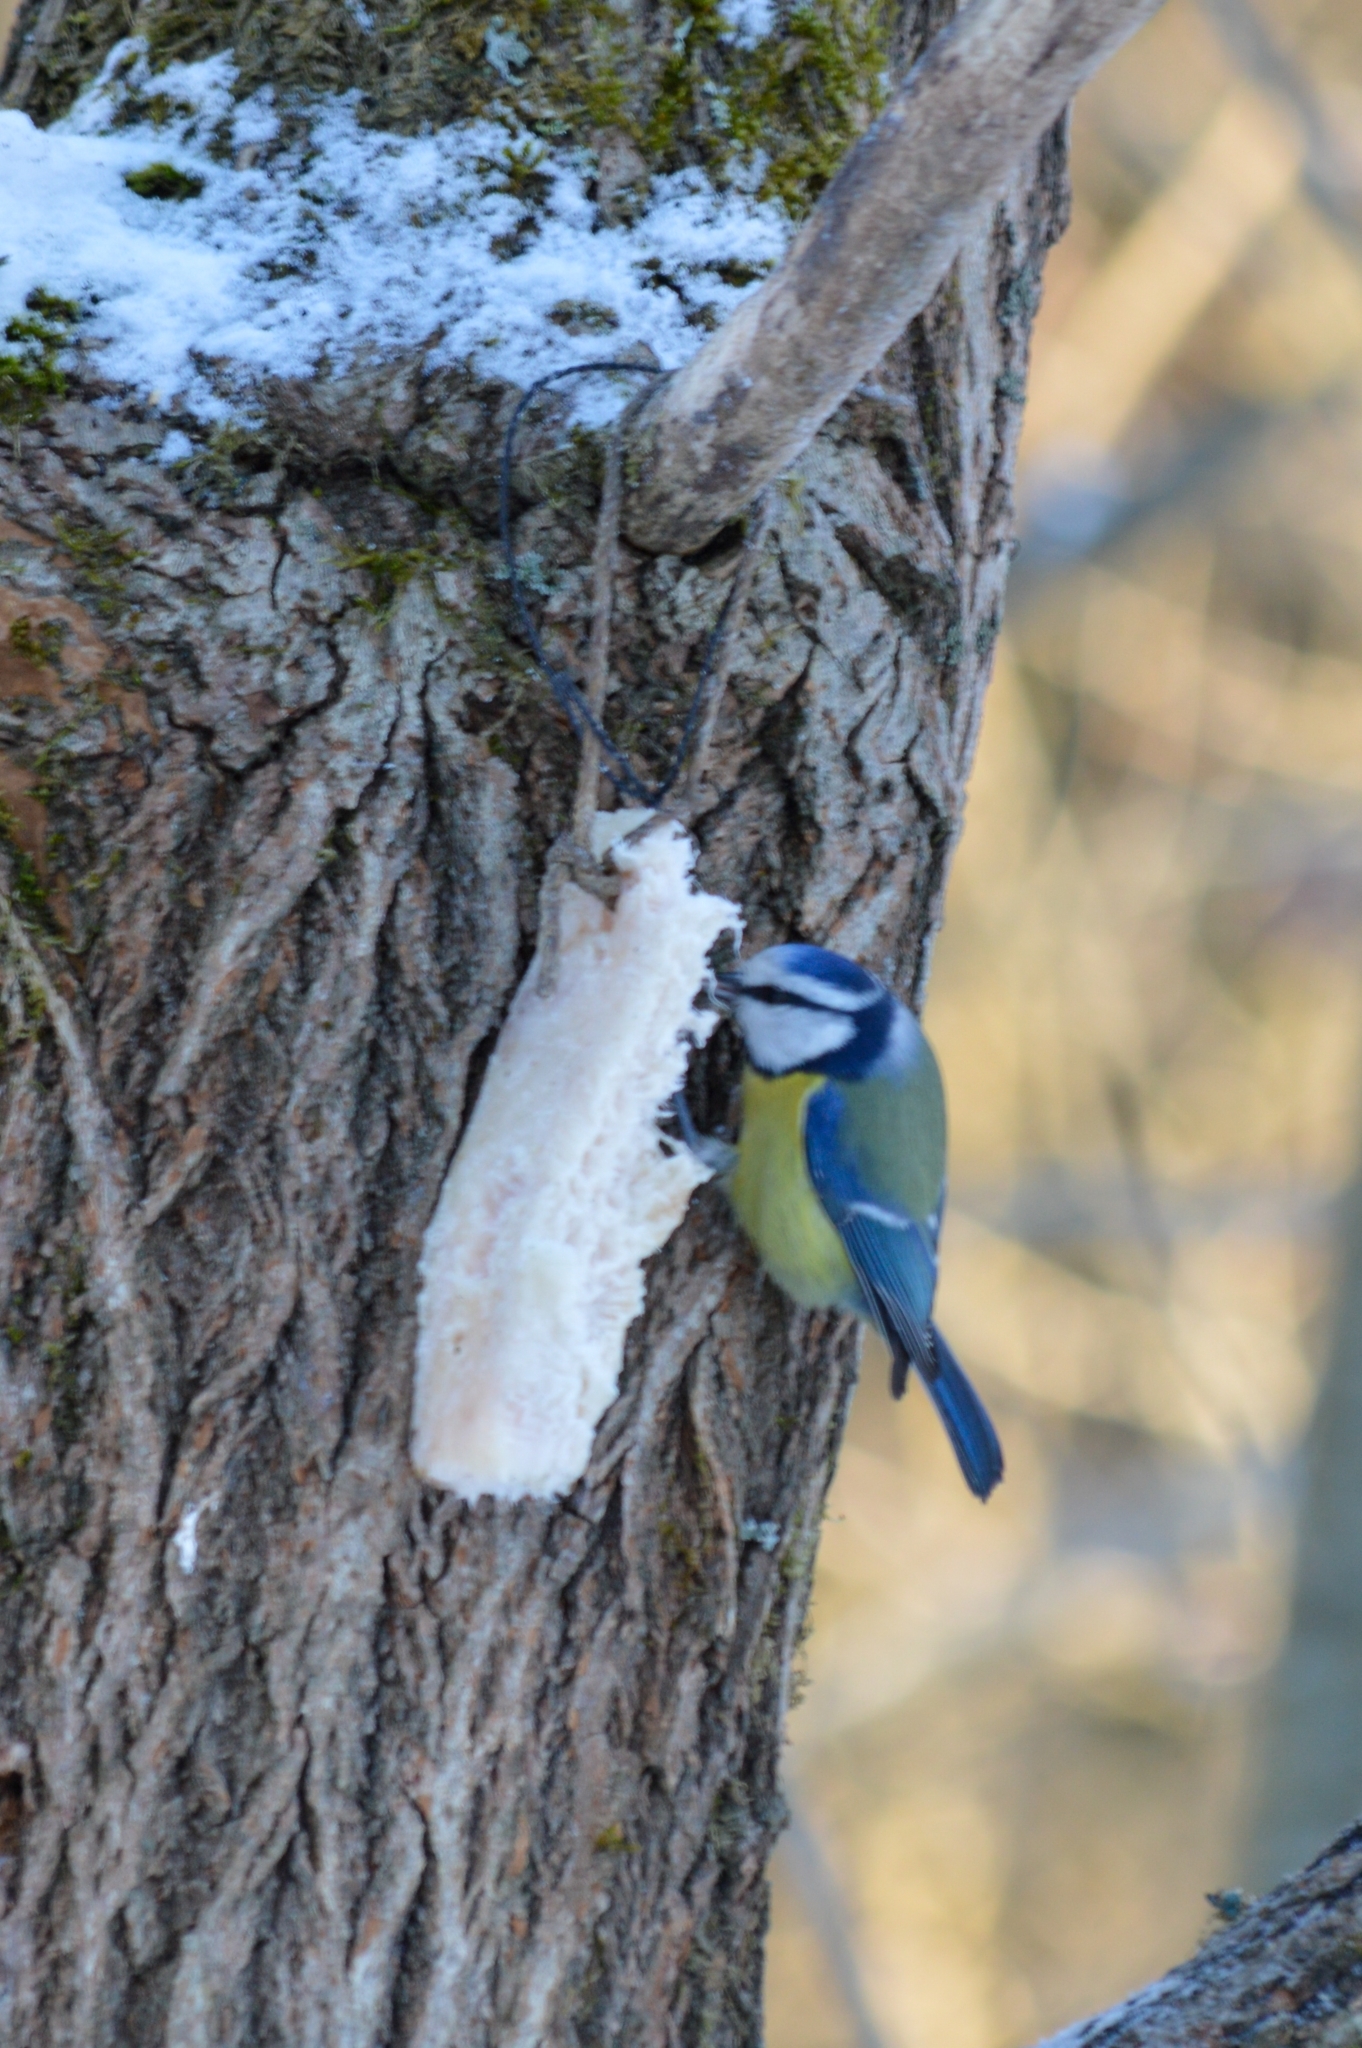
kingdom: Animalia
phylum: Chordata
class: Aves
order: Passeriformes
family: Paridae
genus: Cyanistes
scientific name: Cyanistes caeruleus
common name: Eurasian blue tit
